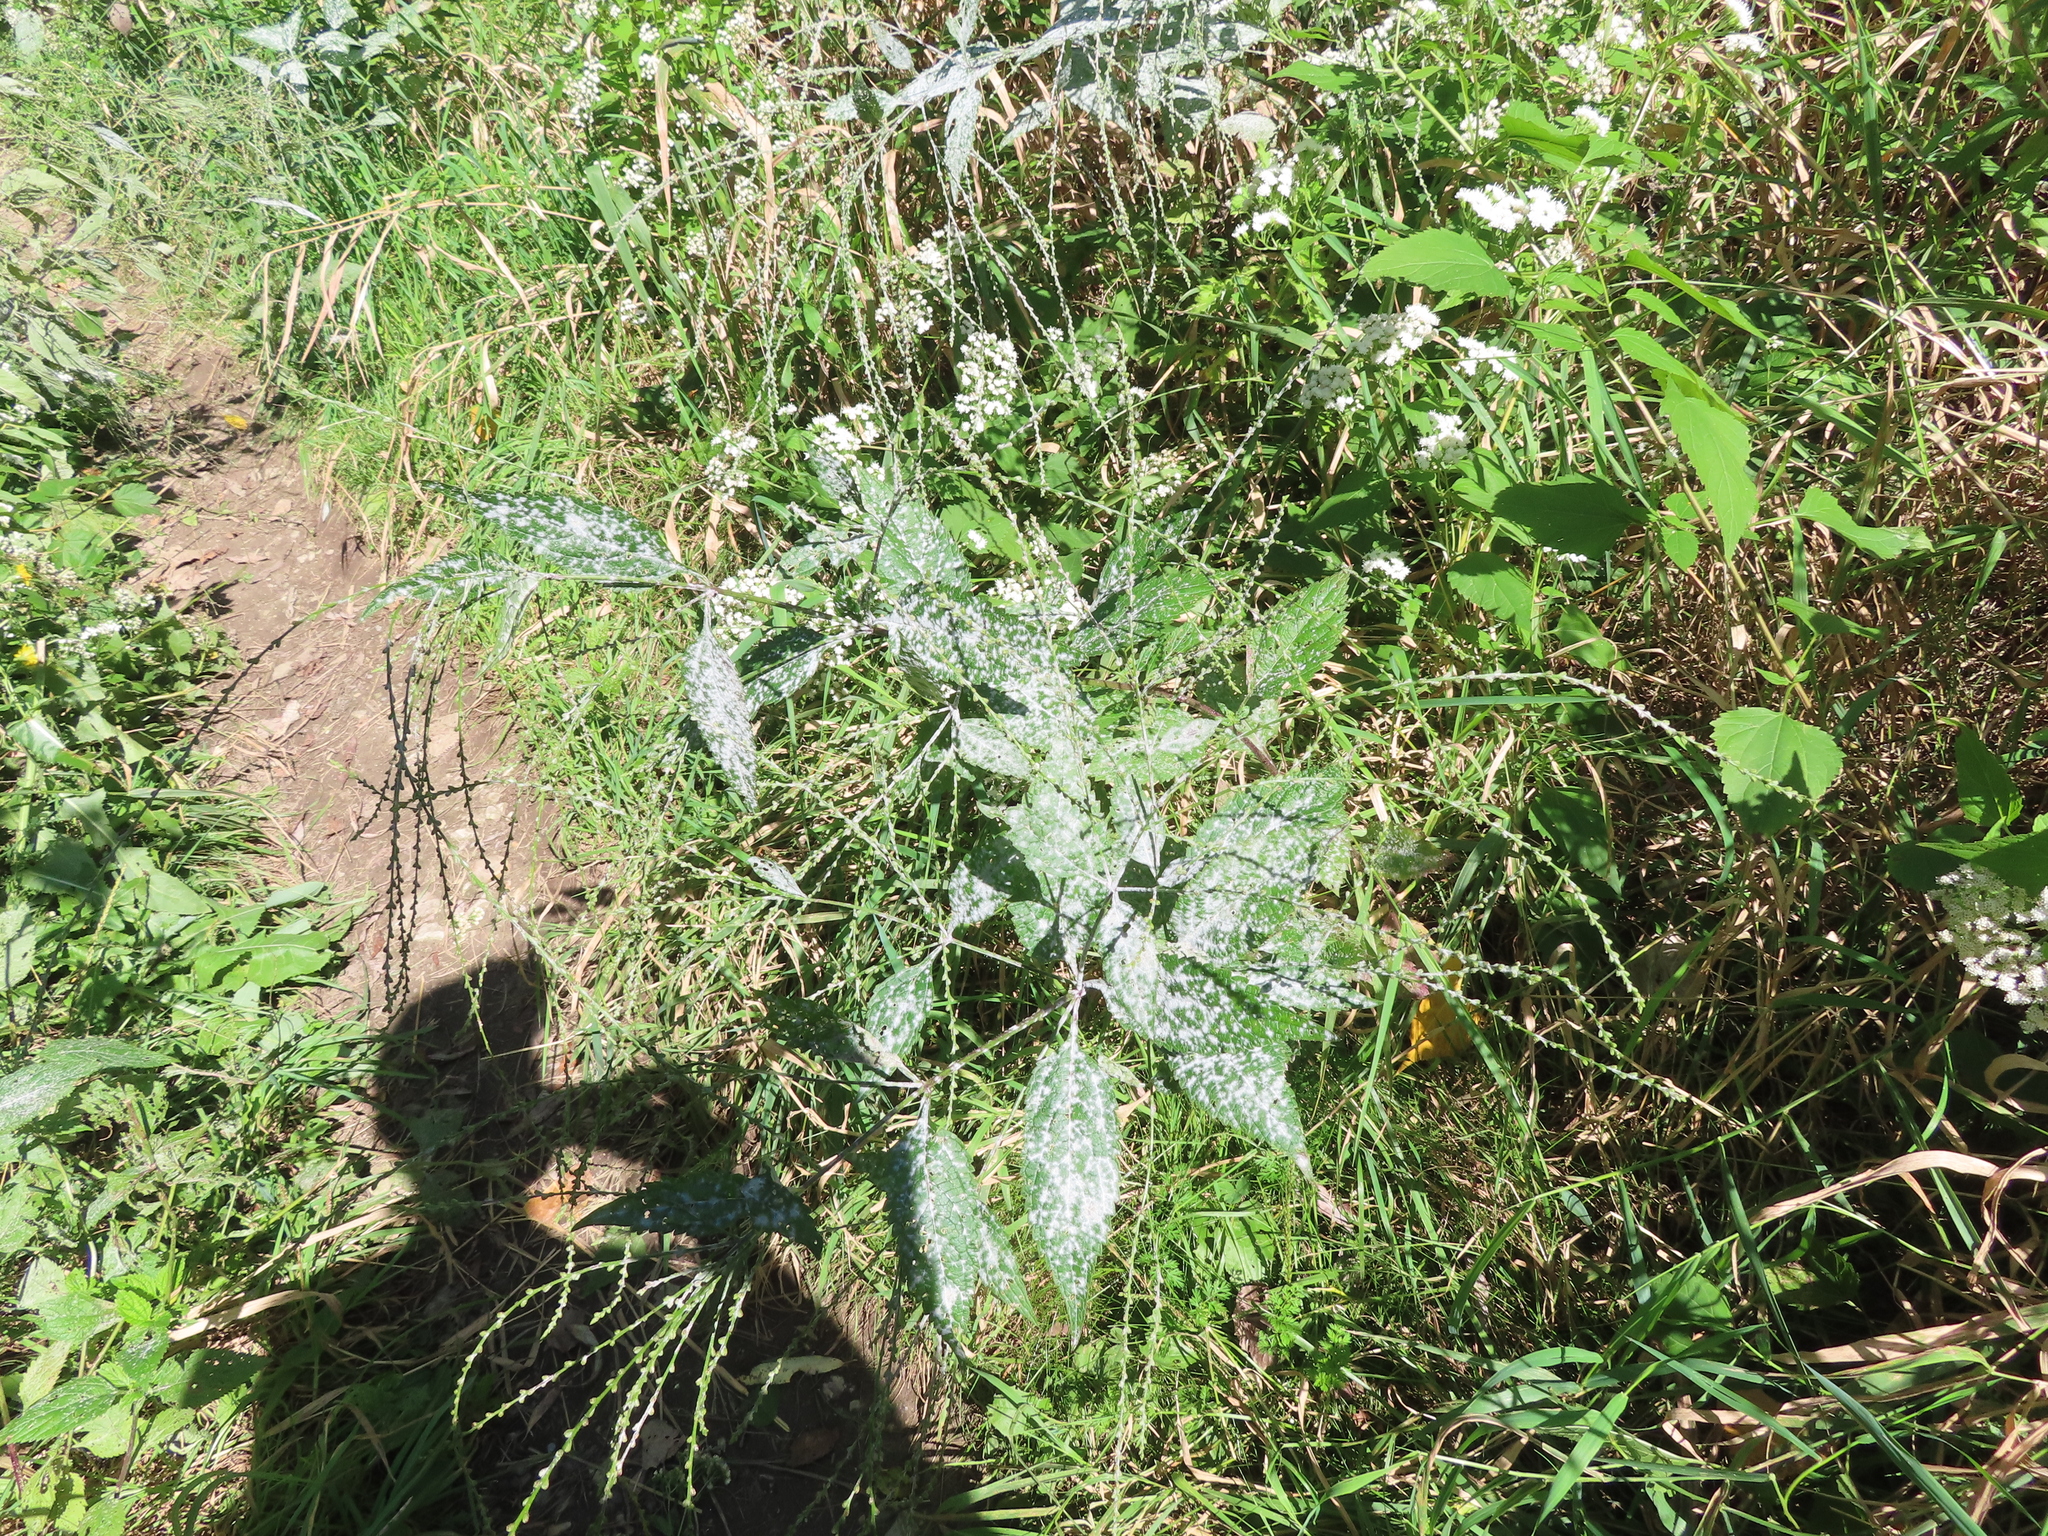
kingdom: Plantae
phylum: Tracheophyta
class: Magnoliopsida
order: Lamiales
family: Verbenaceae
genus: Verbena
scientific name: Verbena urticifolia
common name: Nettle-leaved vervain
